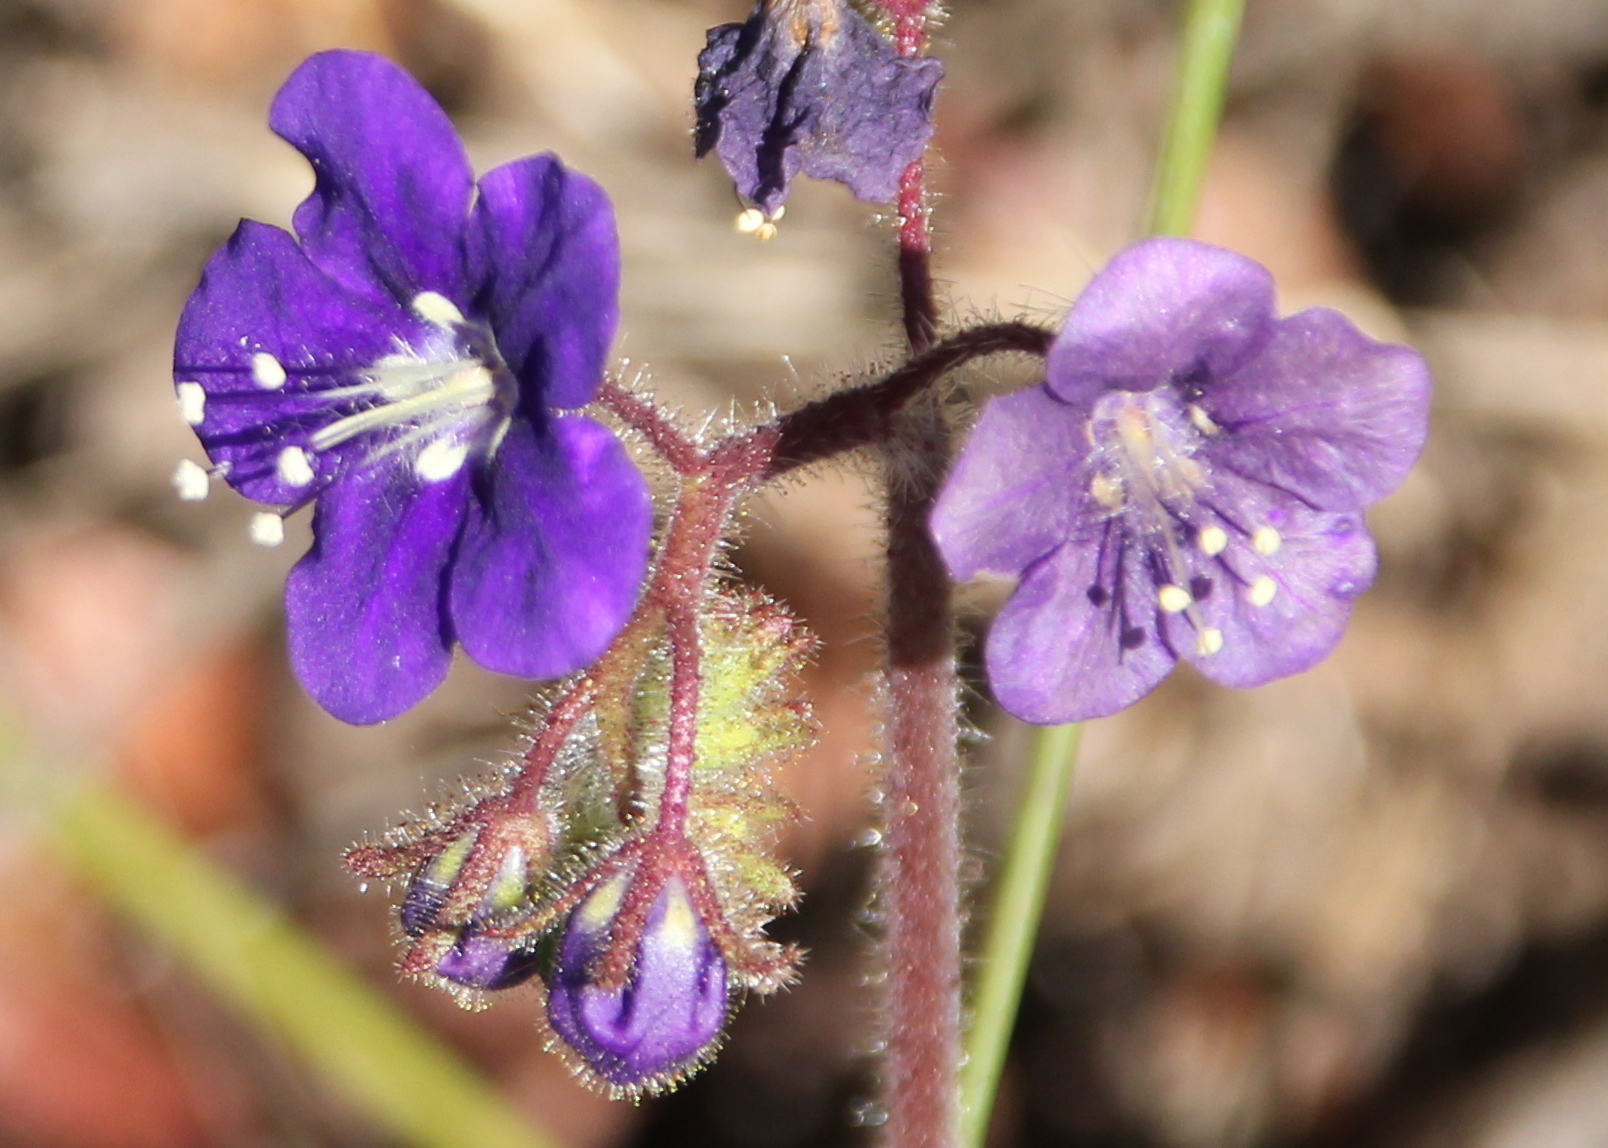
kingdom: Plantae
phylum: Tracheophyta
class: Magnoliopsida
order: Boraginales
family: Hydrophyllaceae
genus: Phacelia
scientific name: Phacelia parryi
